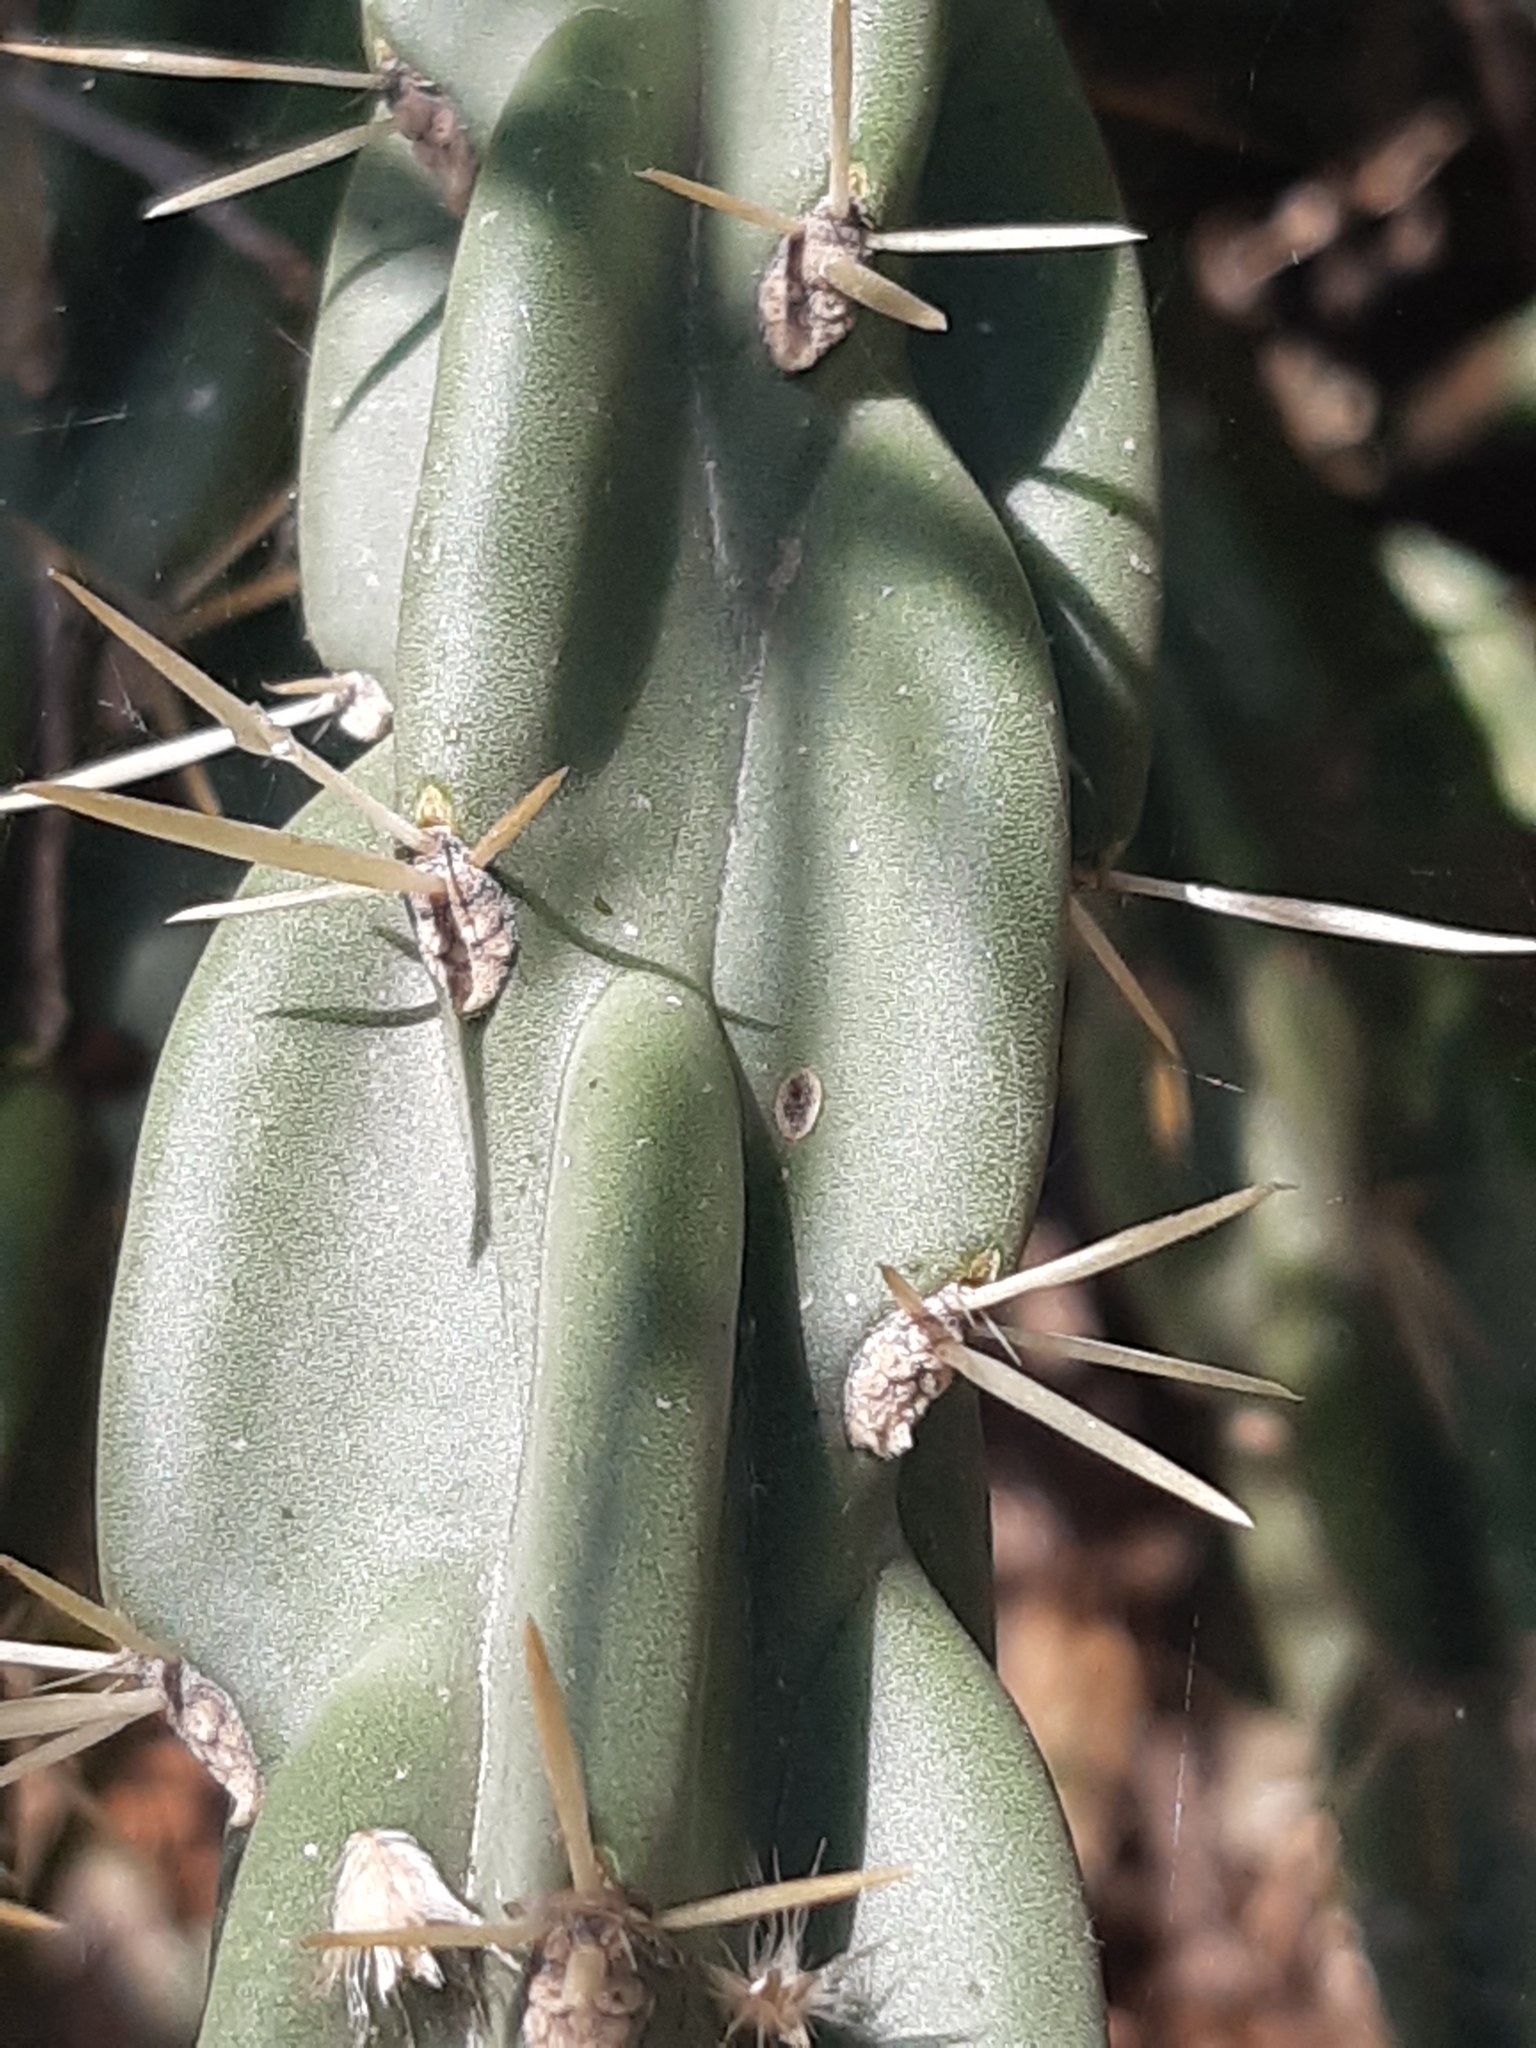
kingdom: Plantae
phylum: Tracheophyta
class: Magnoliopsida
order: Caryophyllales
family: Cactaceae
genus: Cylindropuntia
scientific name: Cylindropuntia imbricata
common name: Candelabrum cactus
